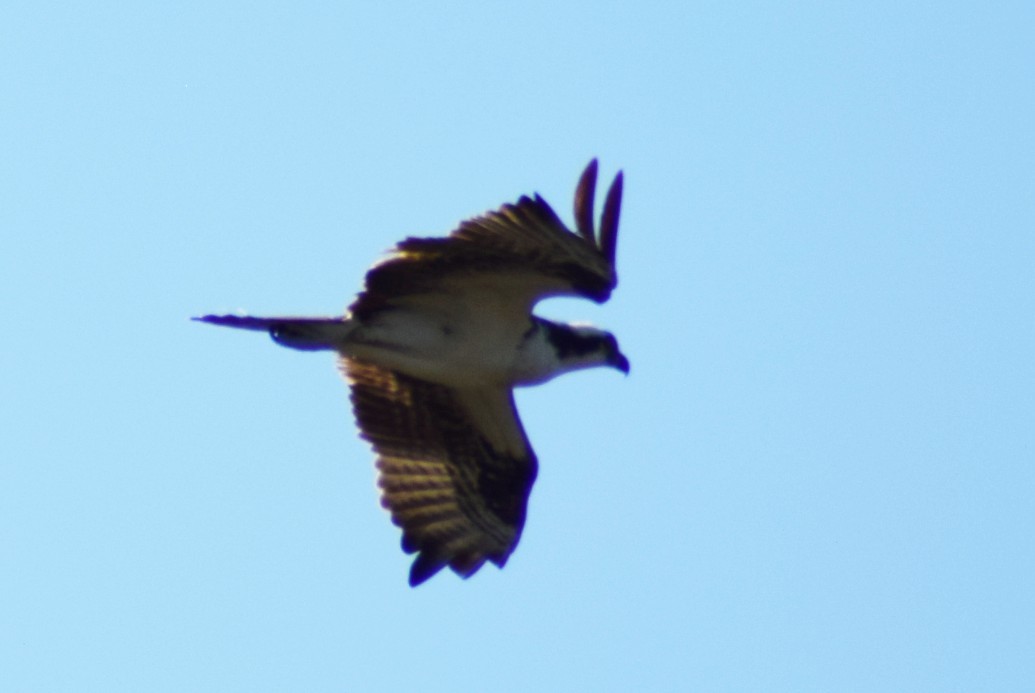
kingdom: Animalia
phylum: Chordata
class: Aves
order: Accipitriformes
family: Pandionidae
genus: Pandion
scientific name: Pandion haliaetus
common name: Osprey
